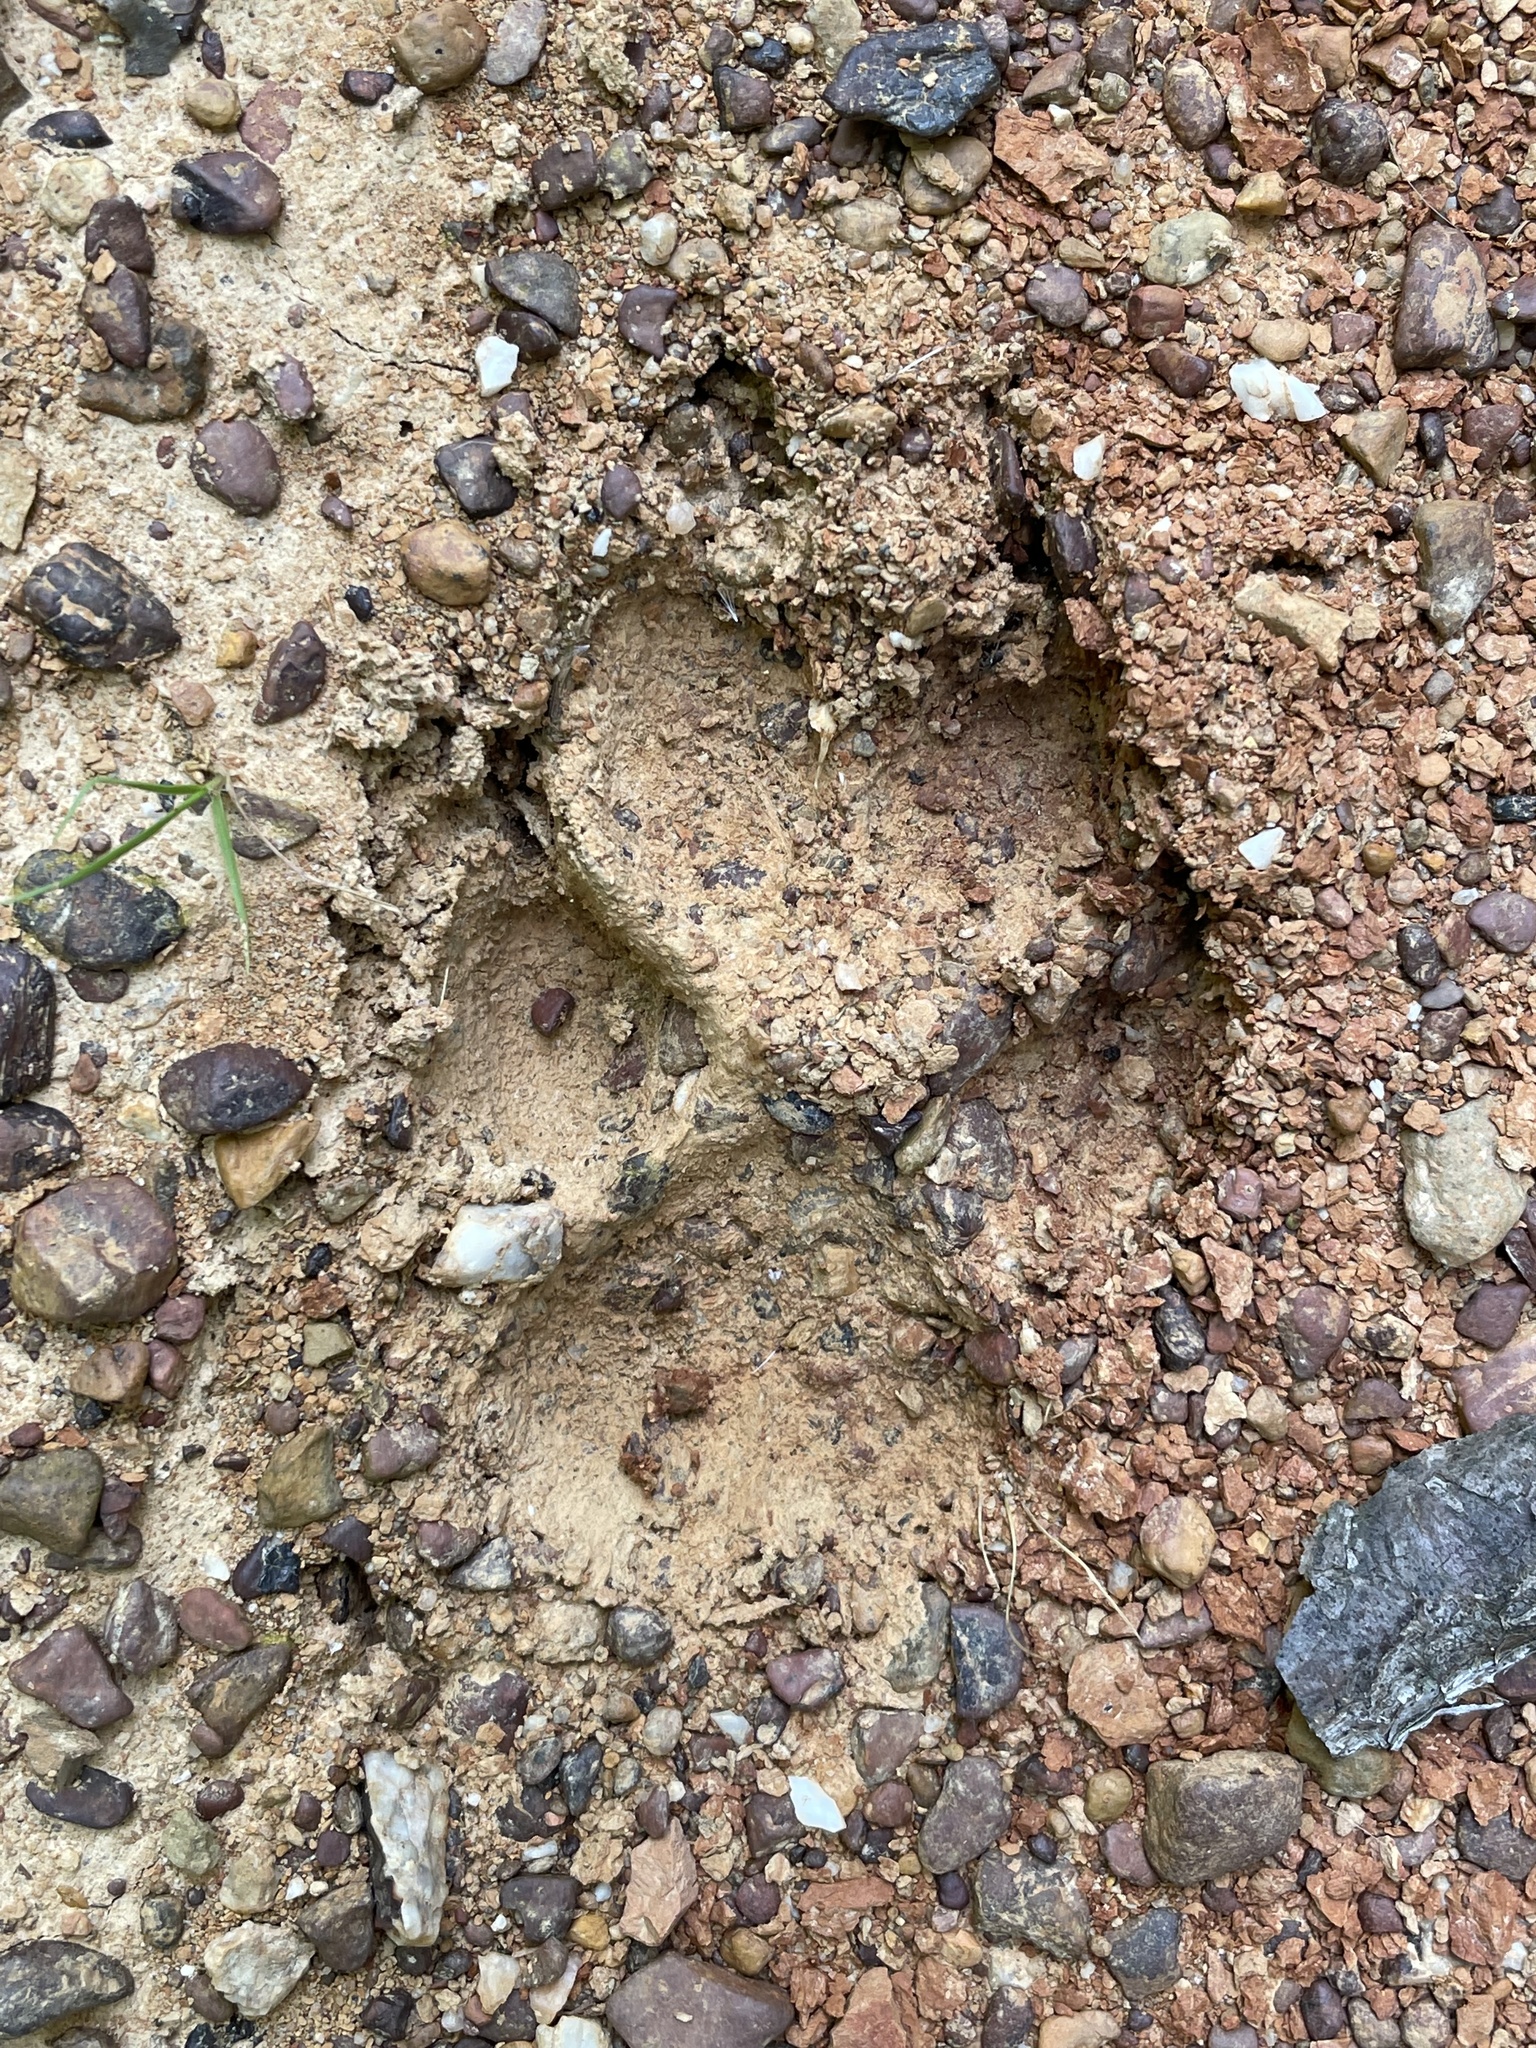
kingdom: Animalia
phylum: Chordata
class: Mammalia
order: Carnivora
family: Canidae
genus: Canis
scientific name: Canis latrans
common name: Coyote
